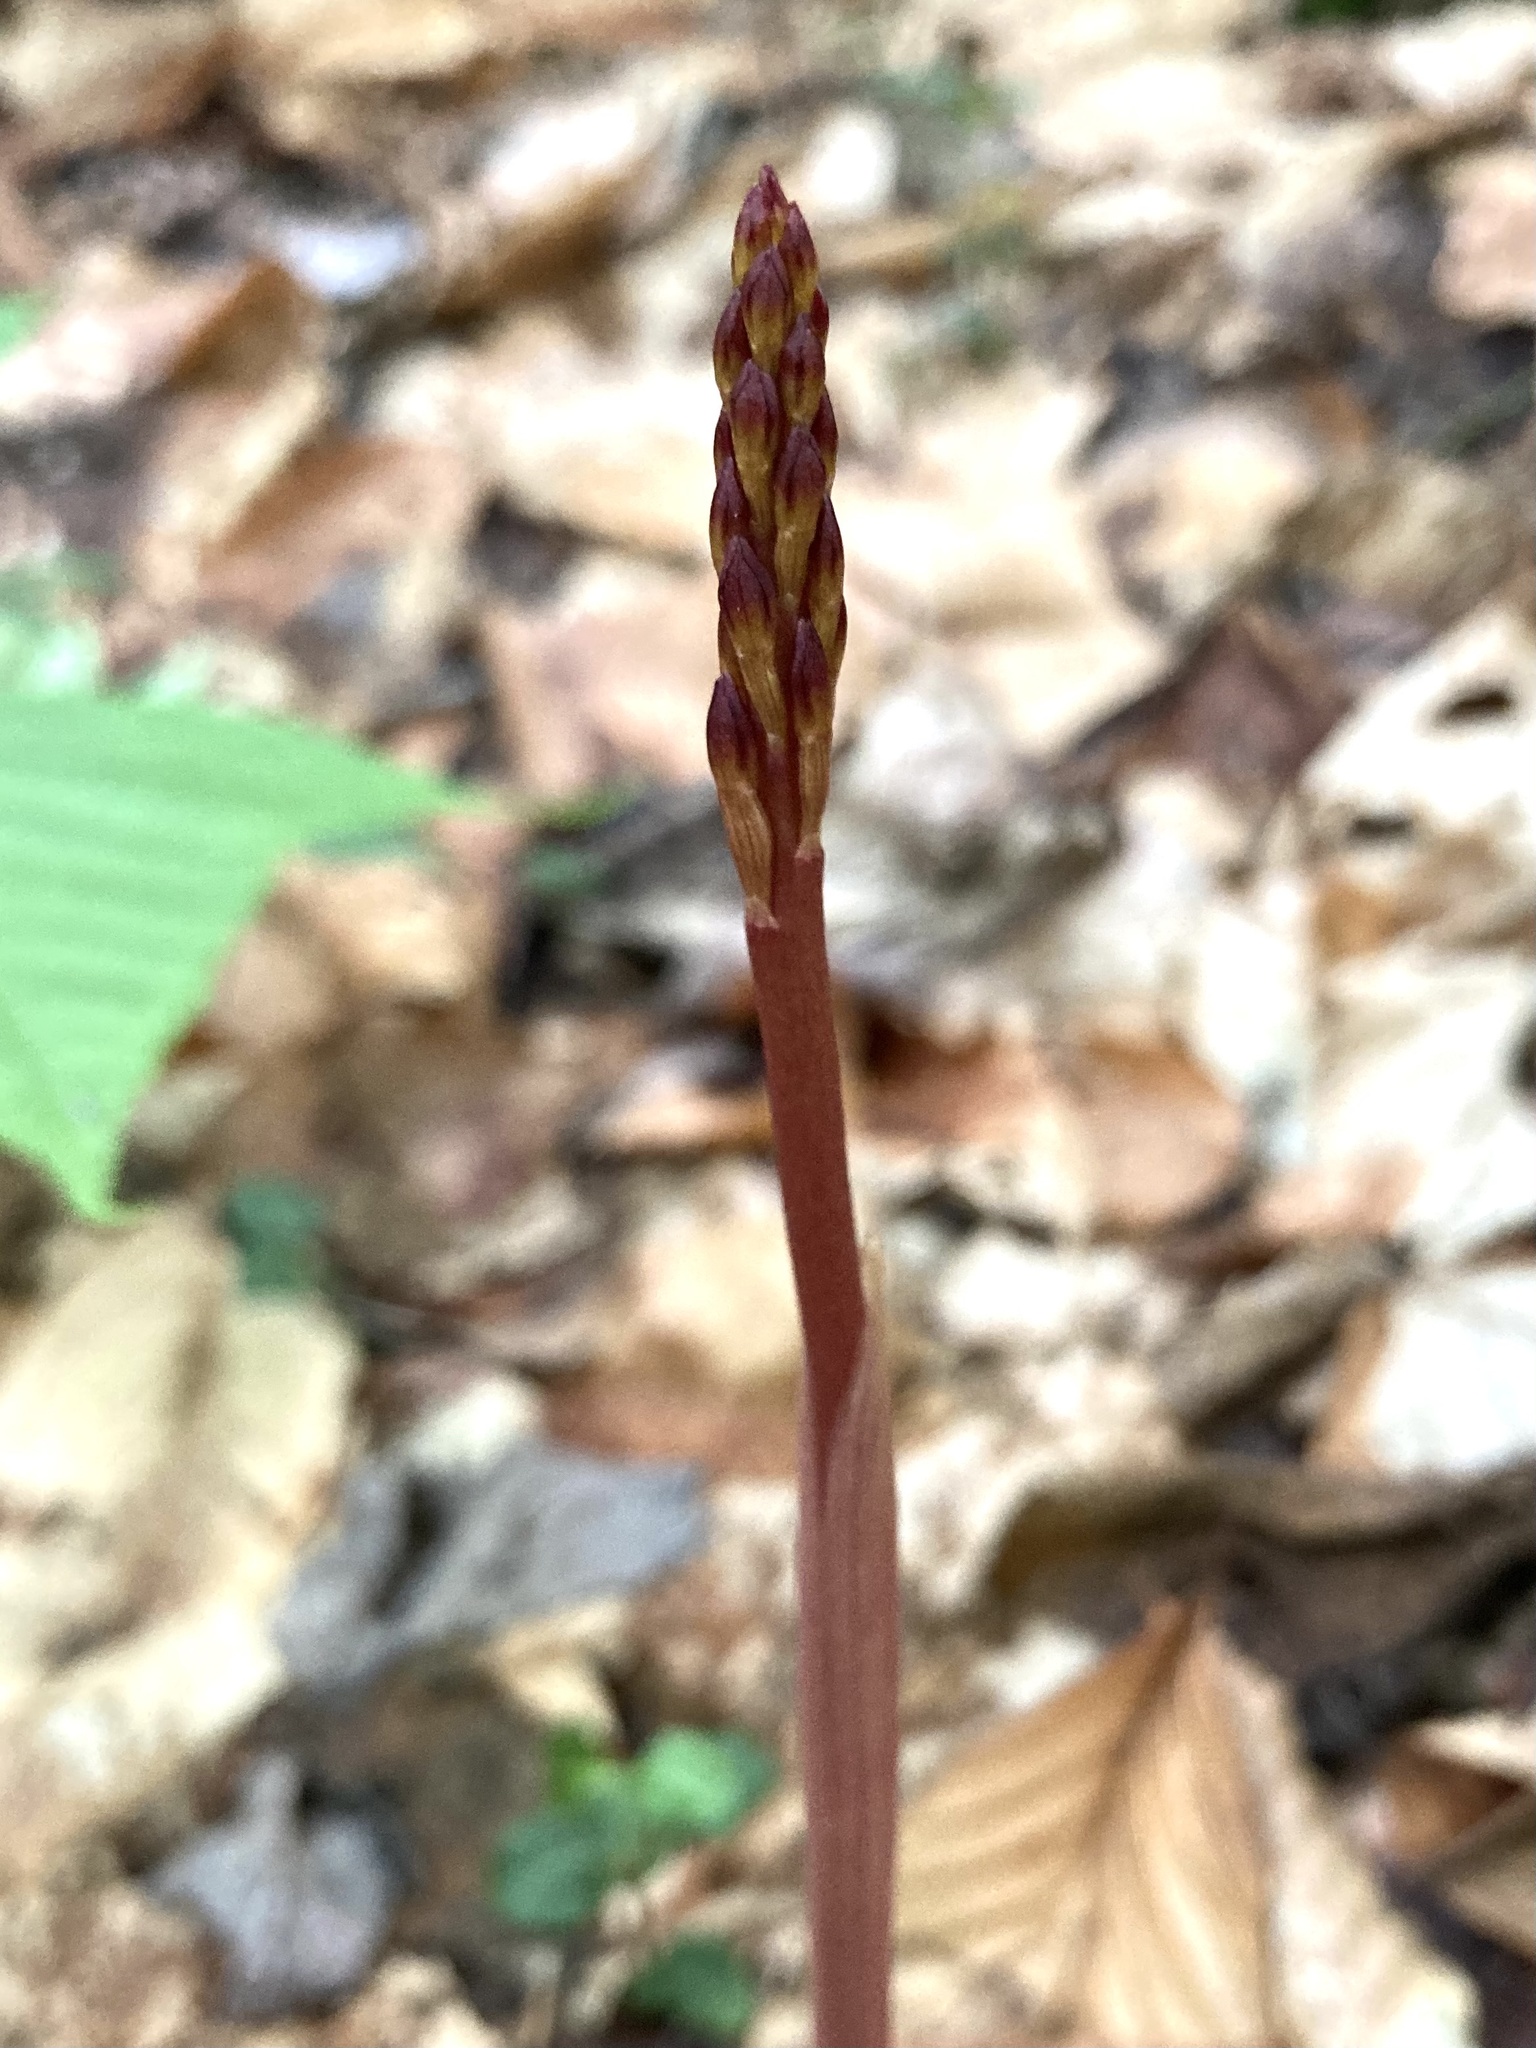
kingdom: Plantae
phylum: Tracheophyta
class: Liliopsida
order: Asparagales
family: Orchidaceae
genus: Corallorhiza
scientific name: Corallorhiza maculata
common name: Spotted coralroot
